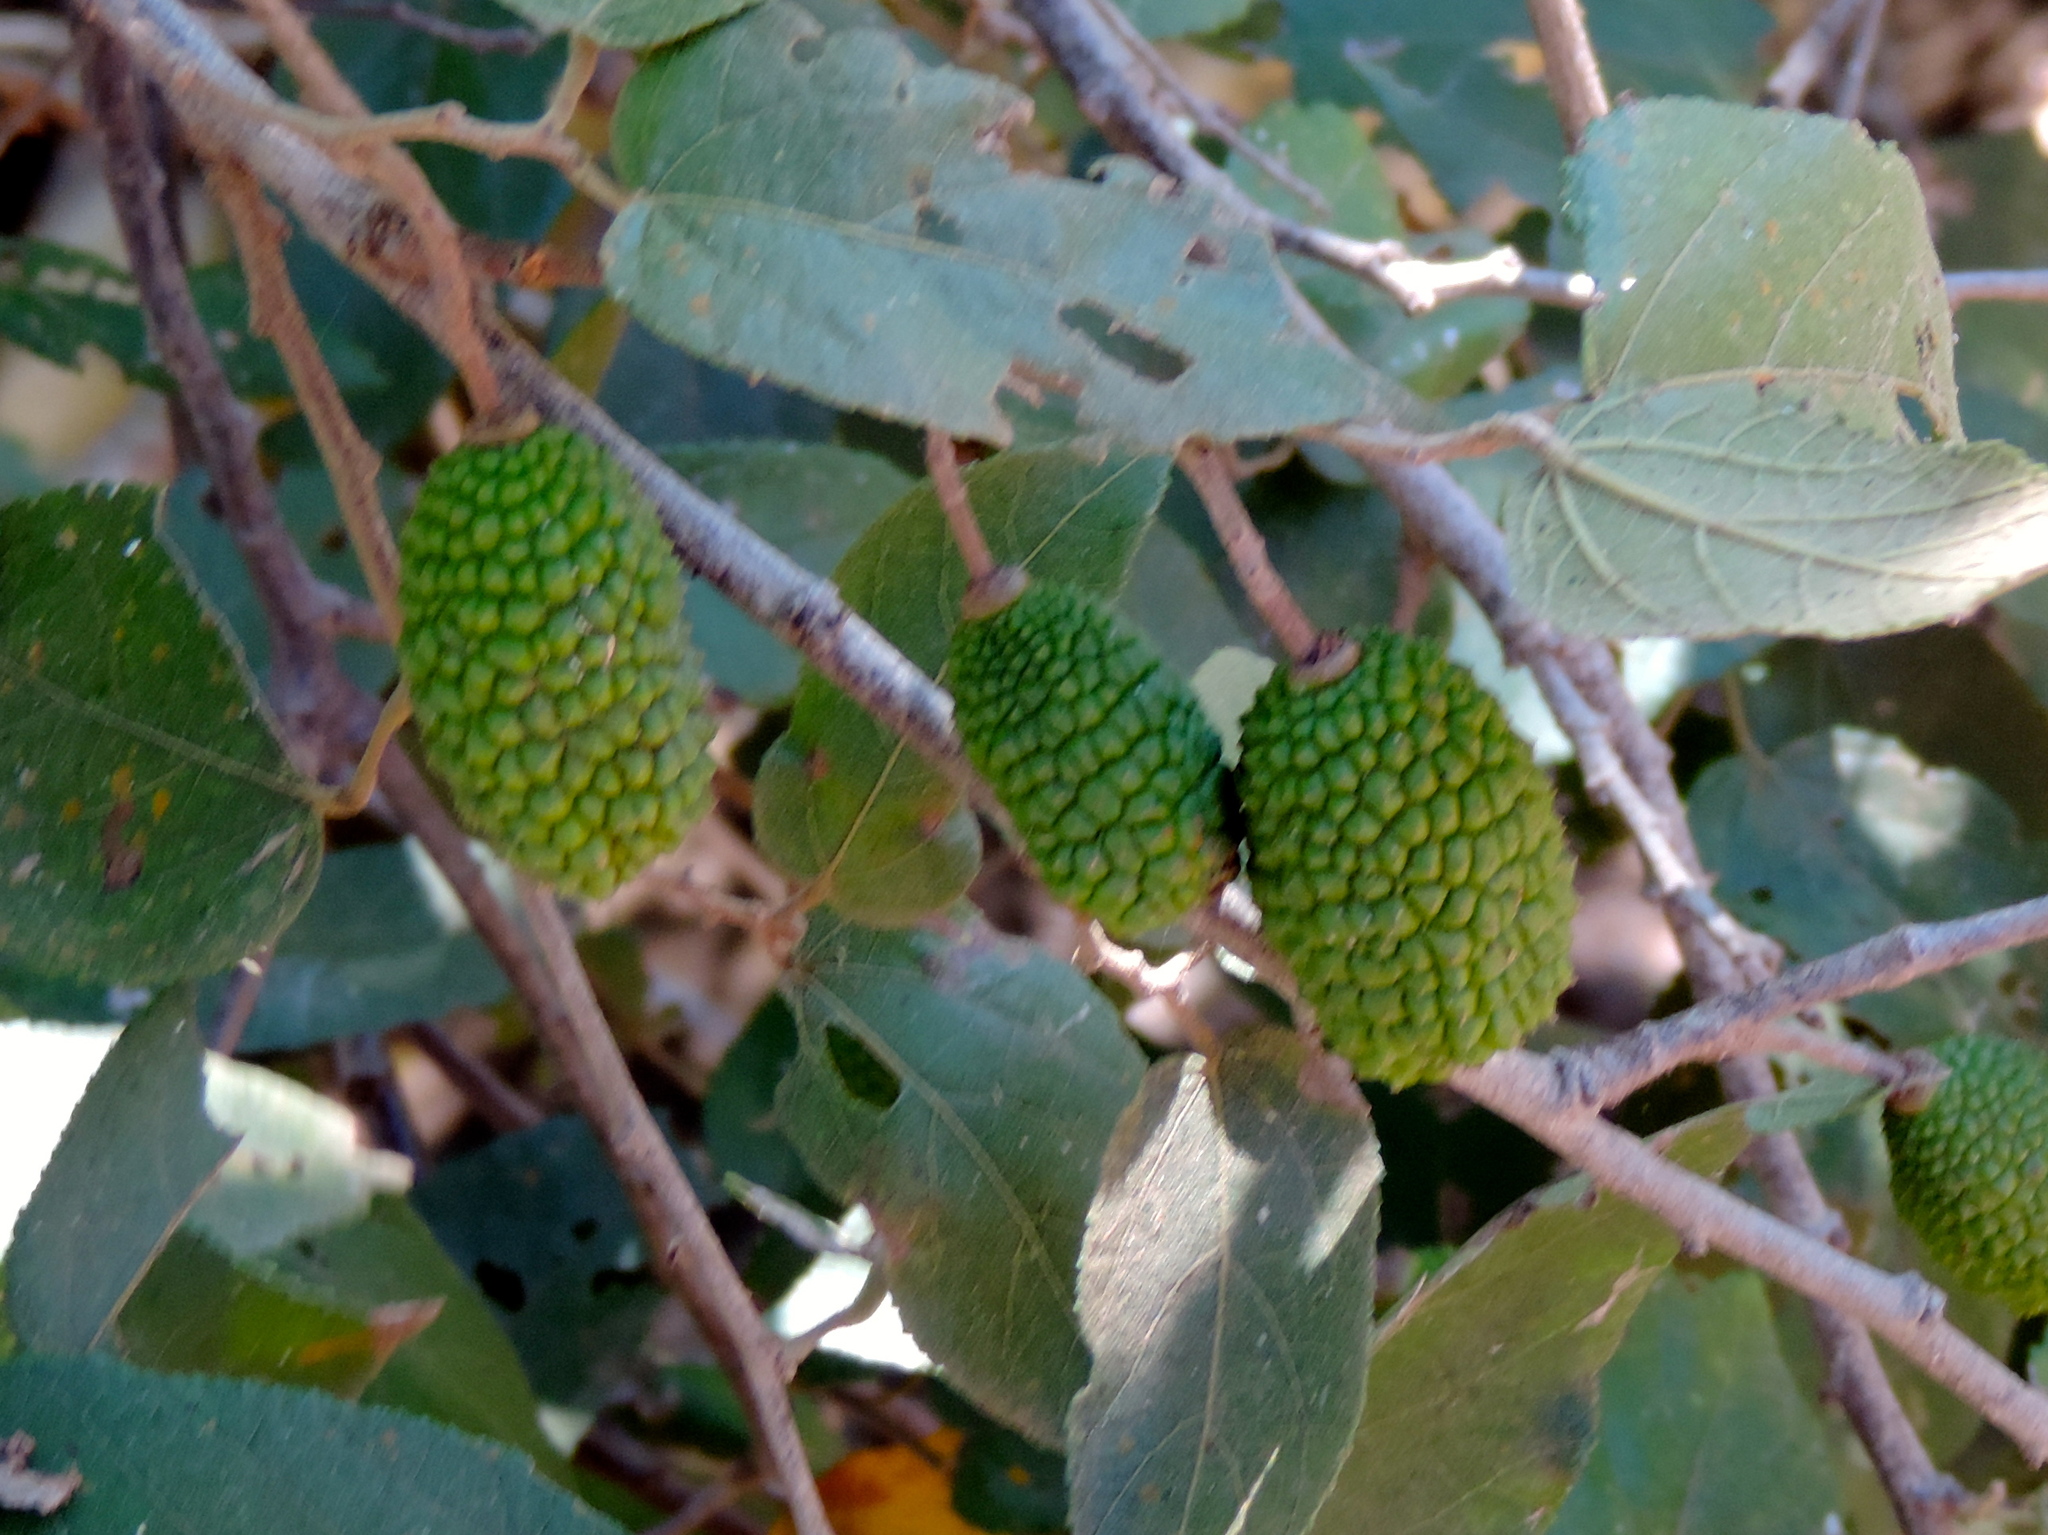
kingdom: Plantae
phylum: Tracheophyta
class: Magnoliopsida
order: Malvales
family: Malvaceae
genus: Guazuma
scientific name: Guazuma ulmifolia
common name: Bastard-cedar
